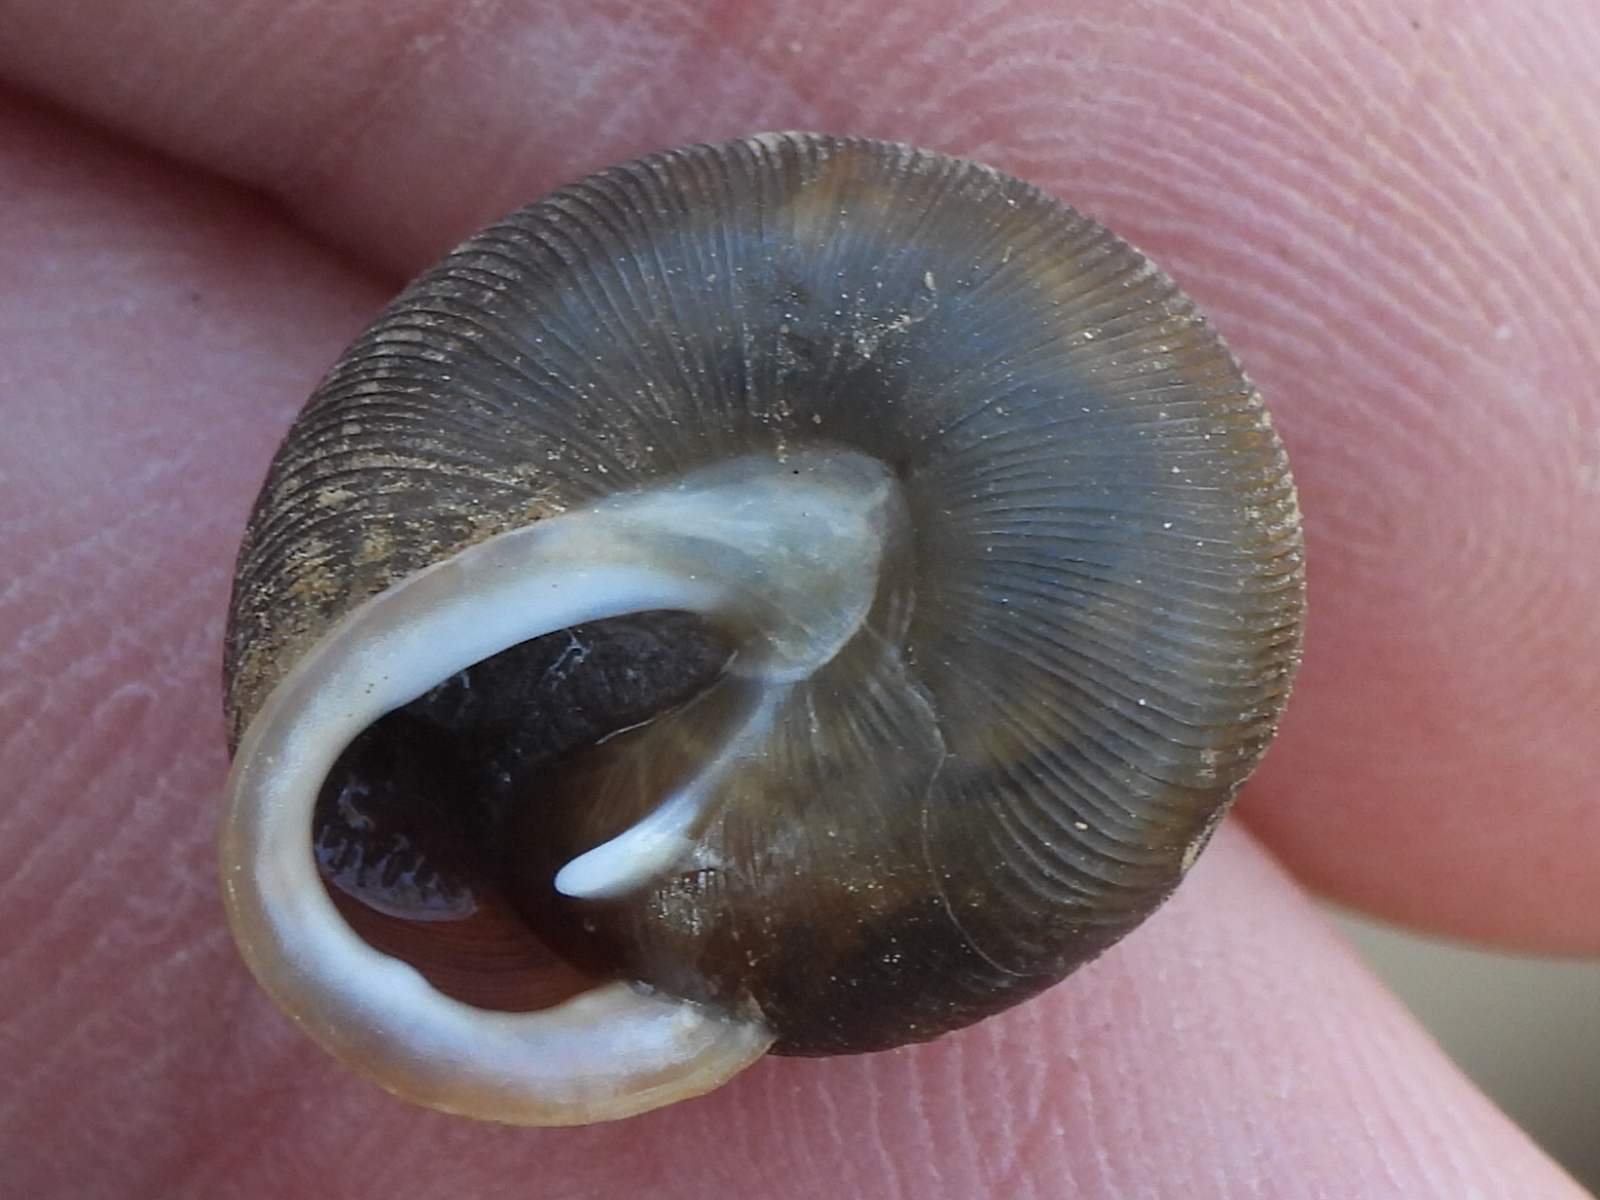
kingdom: Animalia
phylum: Mollusca
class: Gastropoda
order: Stylommatophora
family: Polygyridae
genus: Xolotrema
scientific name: Xolotrema fosteri
